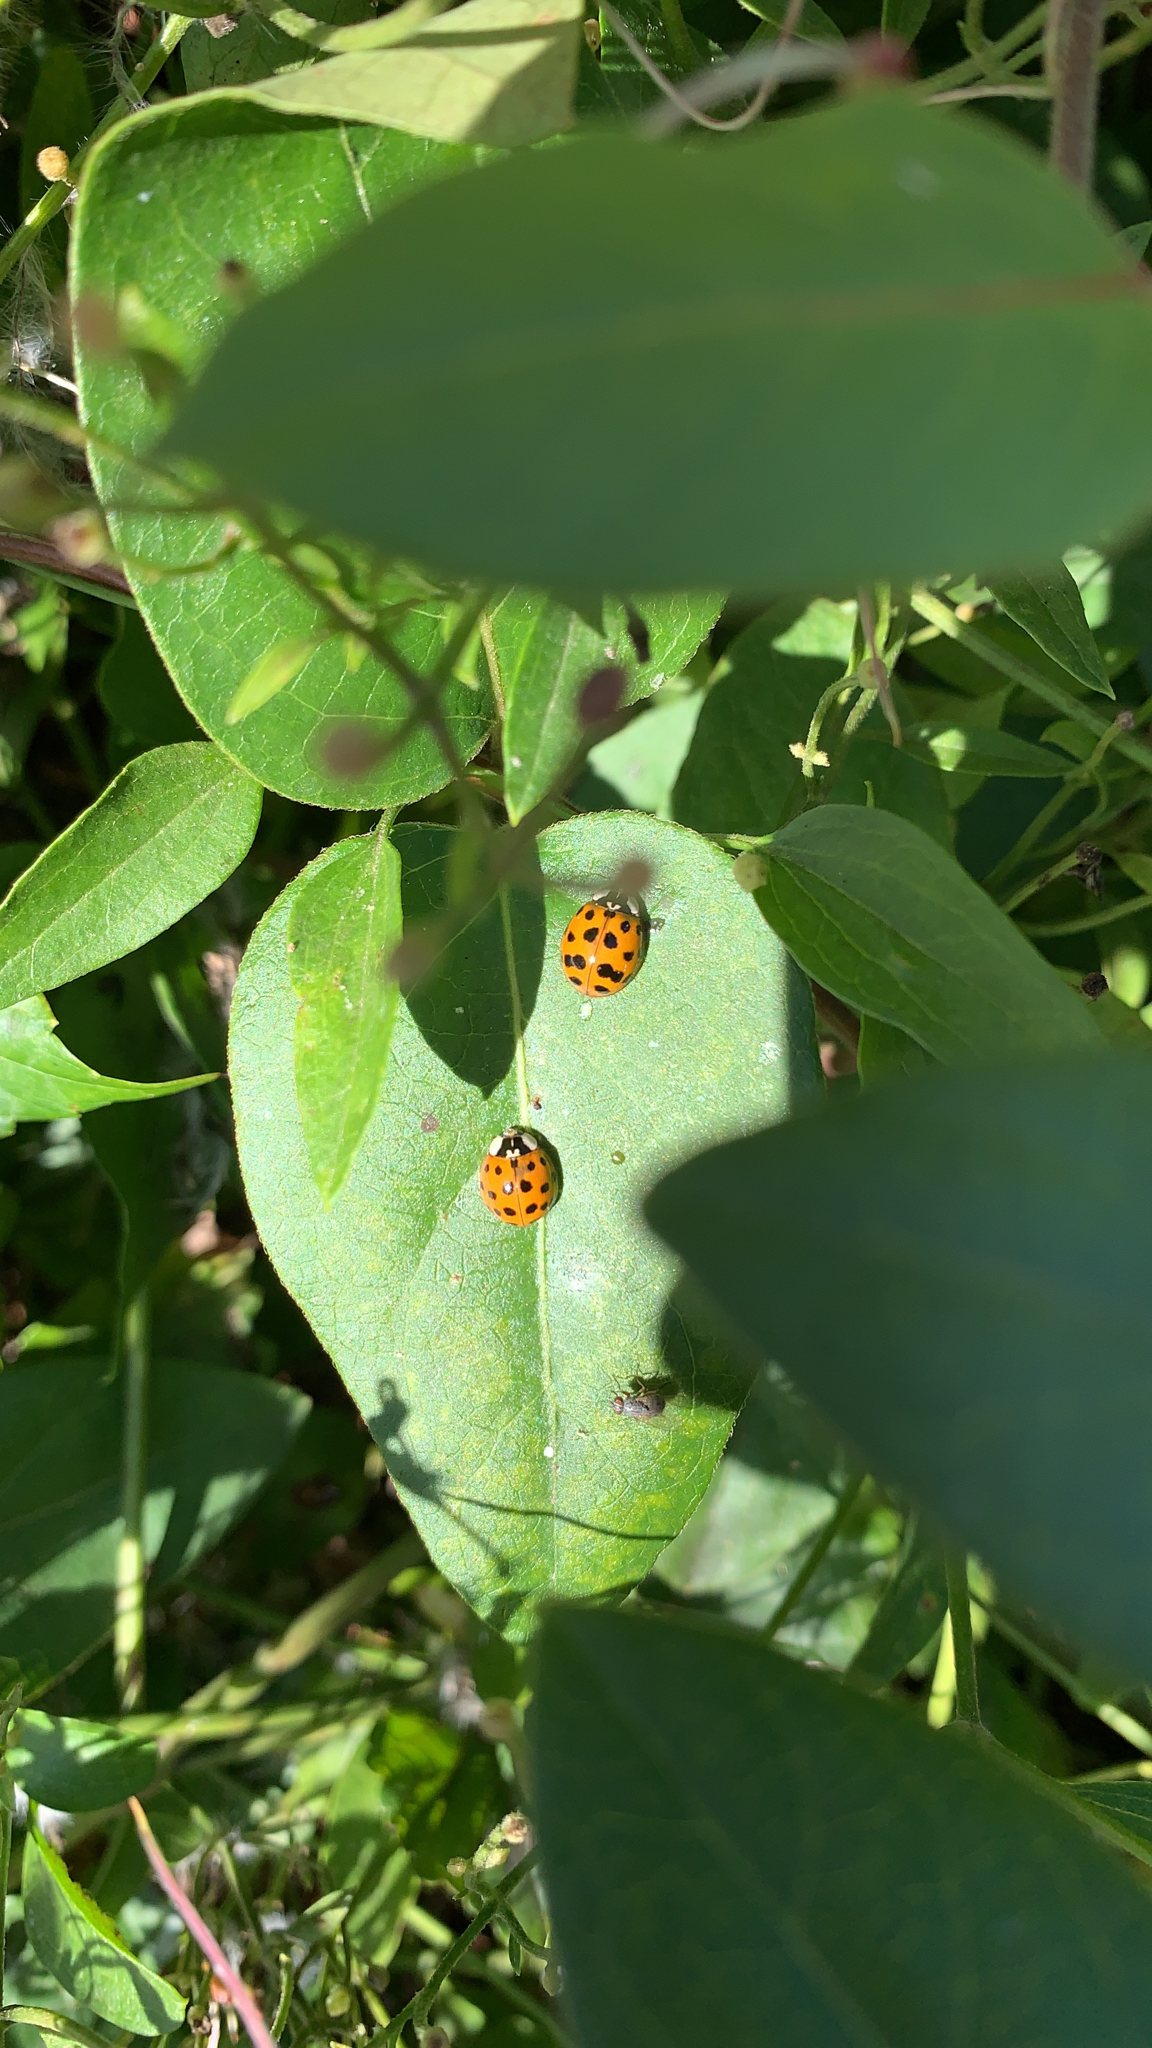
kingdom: Animalia
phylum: Arthropoda
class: Insecta
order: Coleoptera
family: Coccinellidae
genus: Harmonia
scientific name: Harmonia axyridis
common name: Harlequin ladybird
